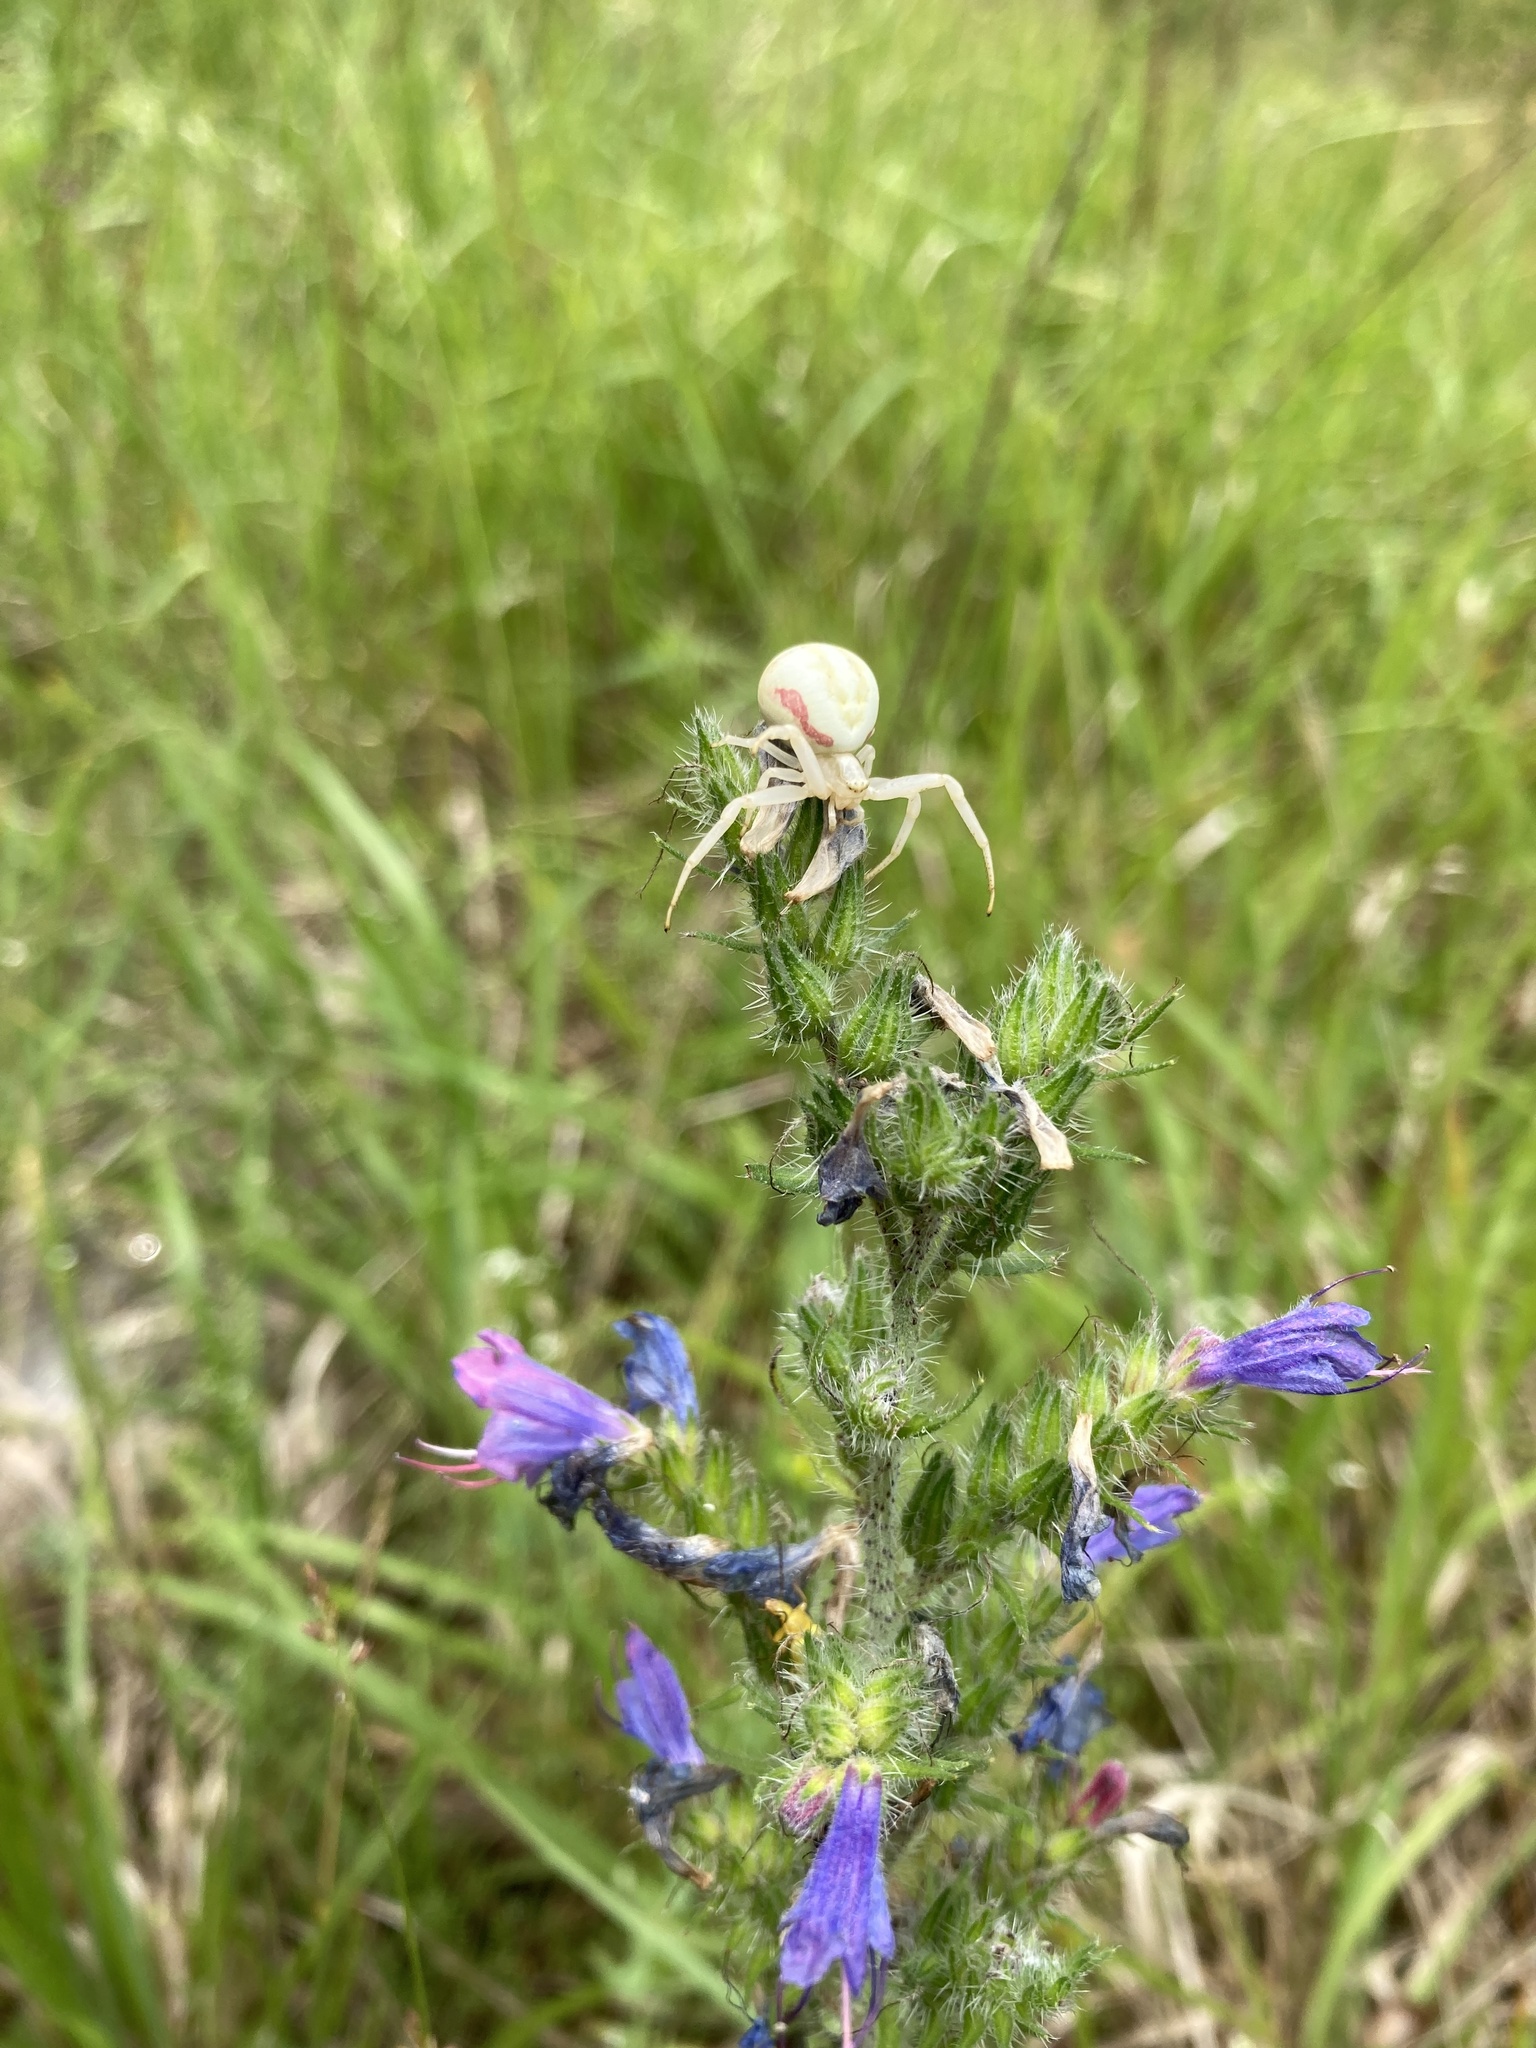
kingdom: Animalia
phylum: Arthropoda
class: Arachnida
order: Araneae
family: Thomisidae
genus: Misumena
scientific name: Misumena vatia
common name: Goldenrod crab spider
